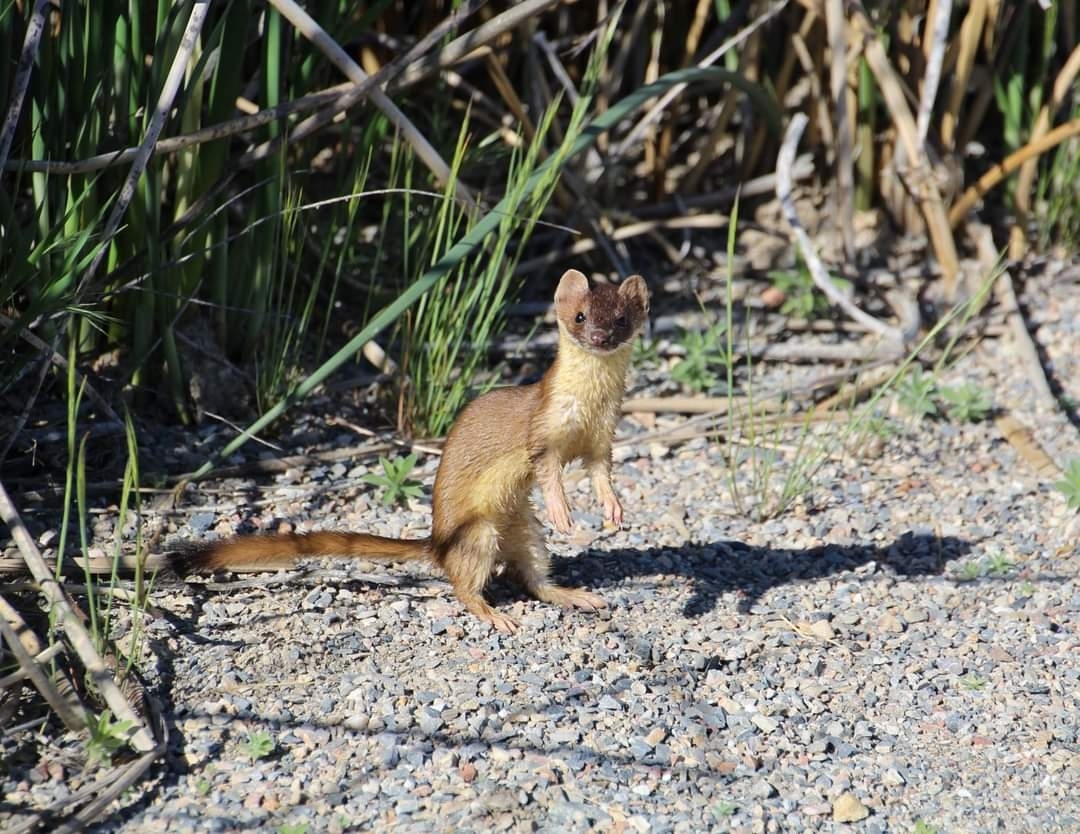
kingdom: Animalia
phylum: Chordata
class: Mammalia
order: Carnivora
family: Mustelidae
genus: Mustela
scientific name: Mustela
